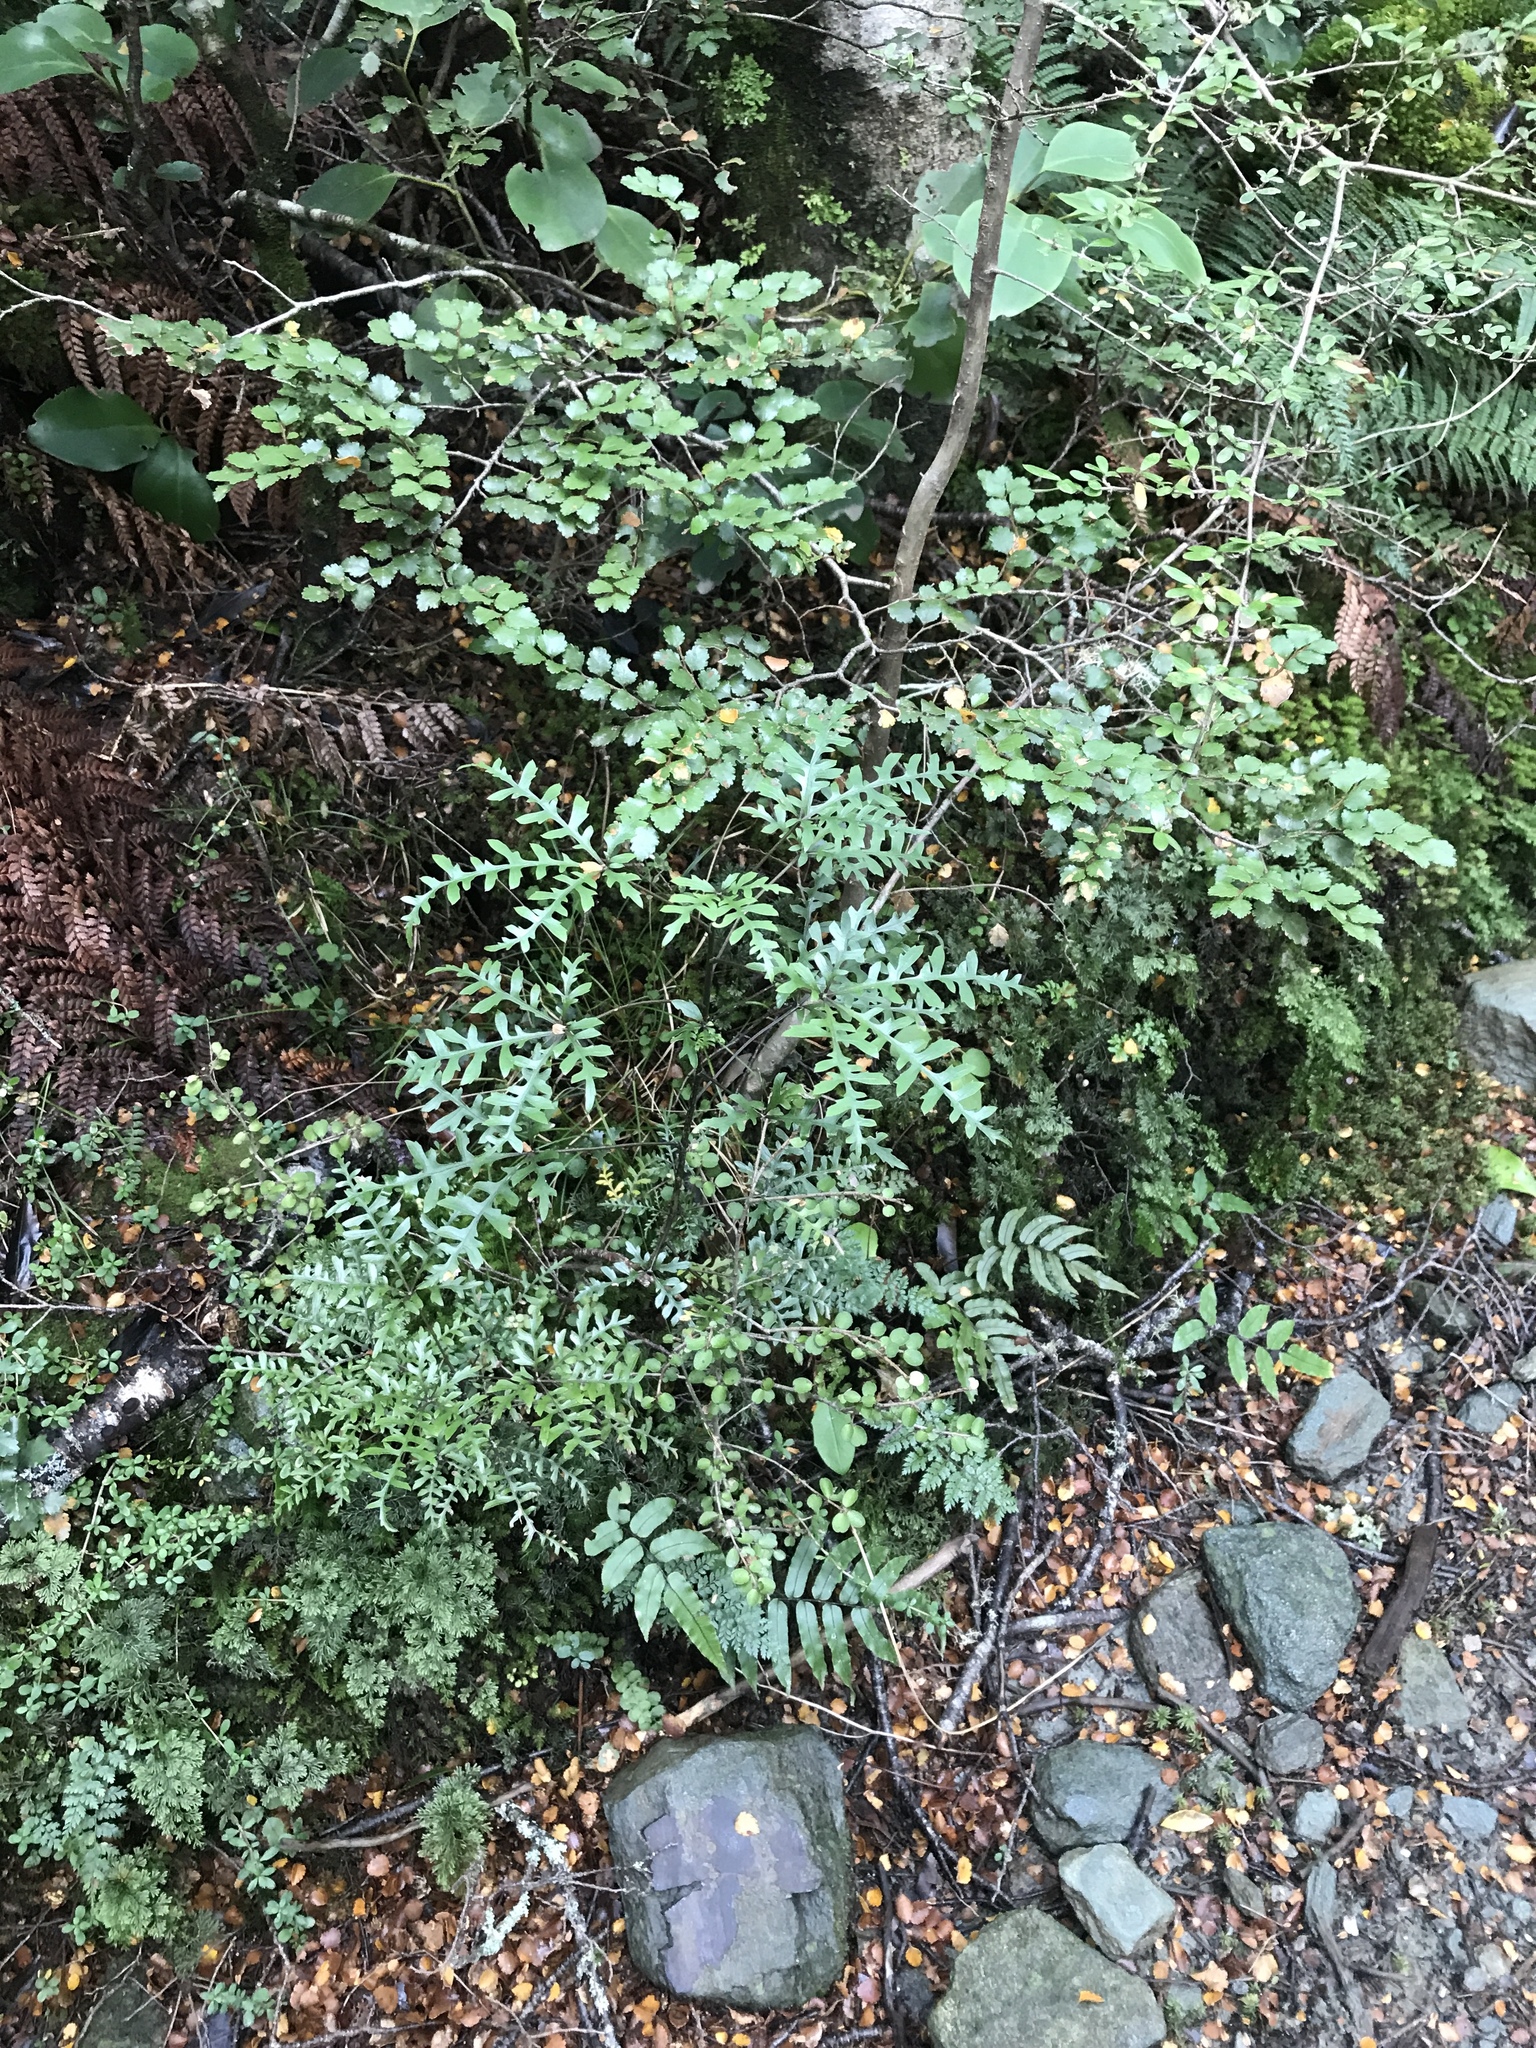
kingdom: Plantae
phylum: Tracheophyta
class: Magnoliopsida
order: Apiales
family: Araliaceae
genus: Raukaua
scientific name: Raukaua simplex
